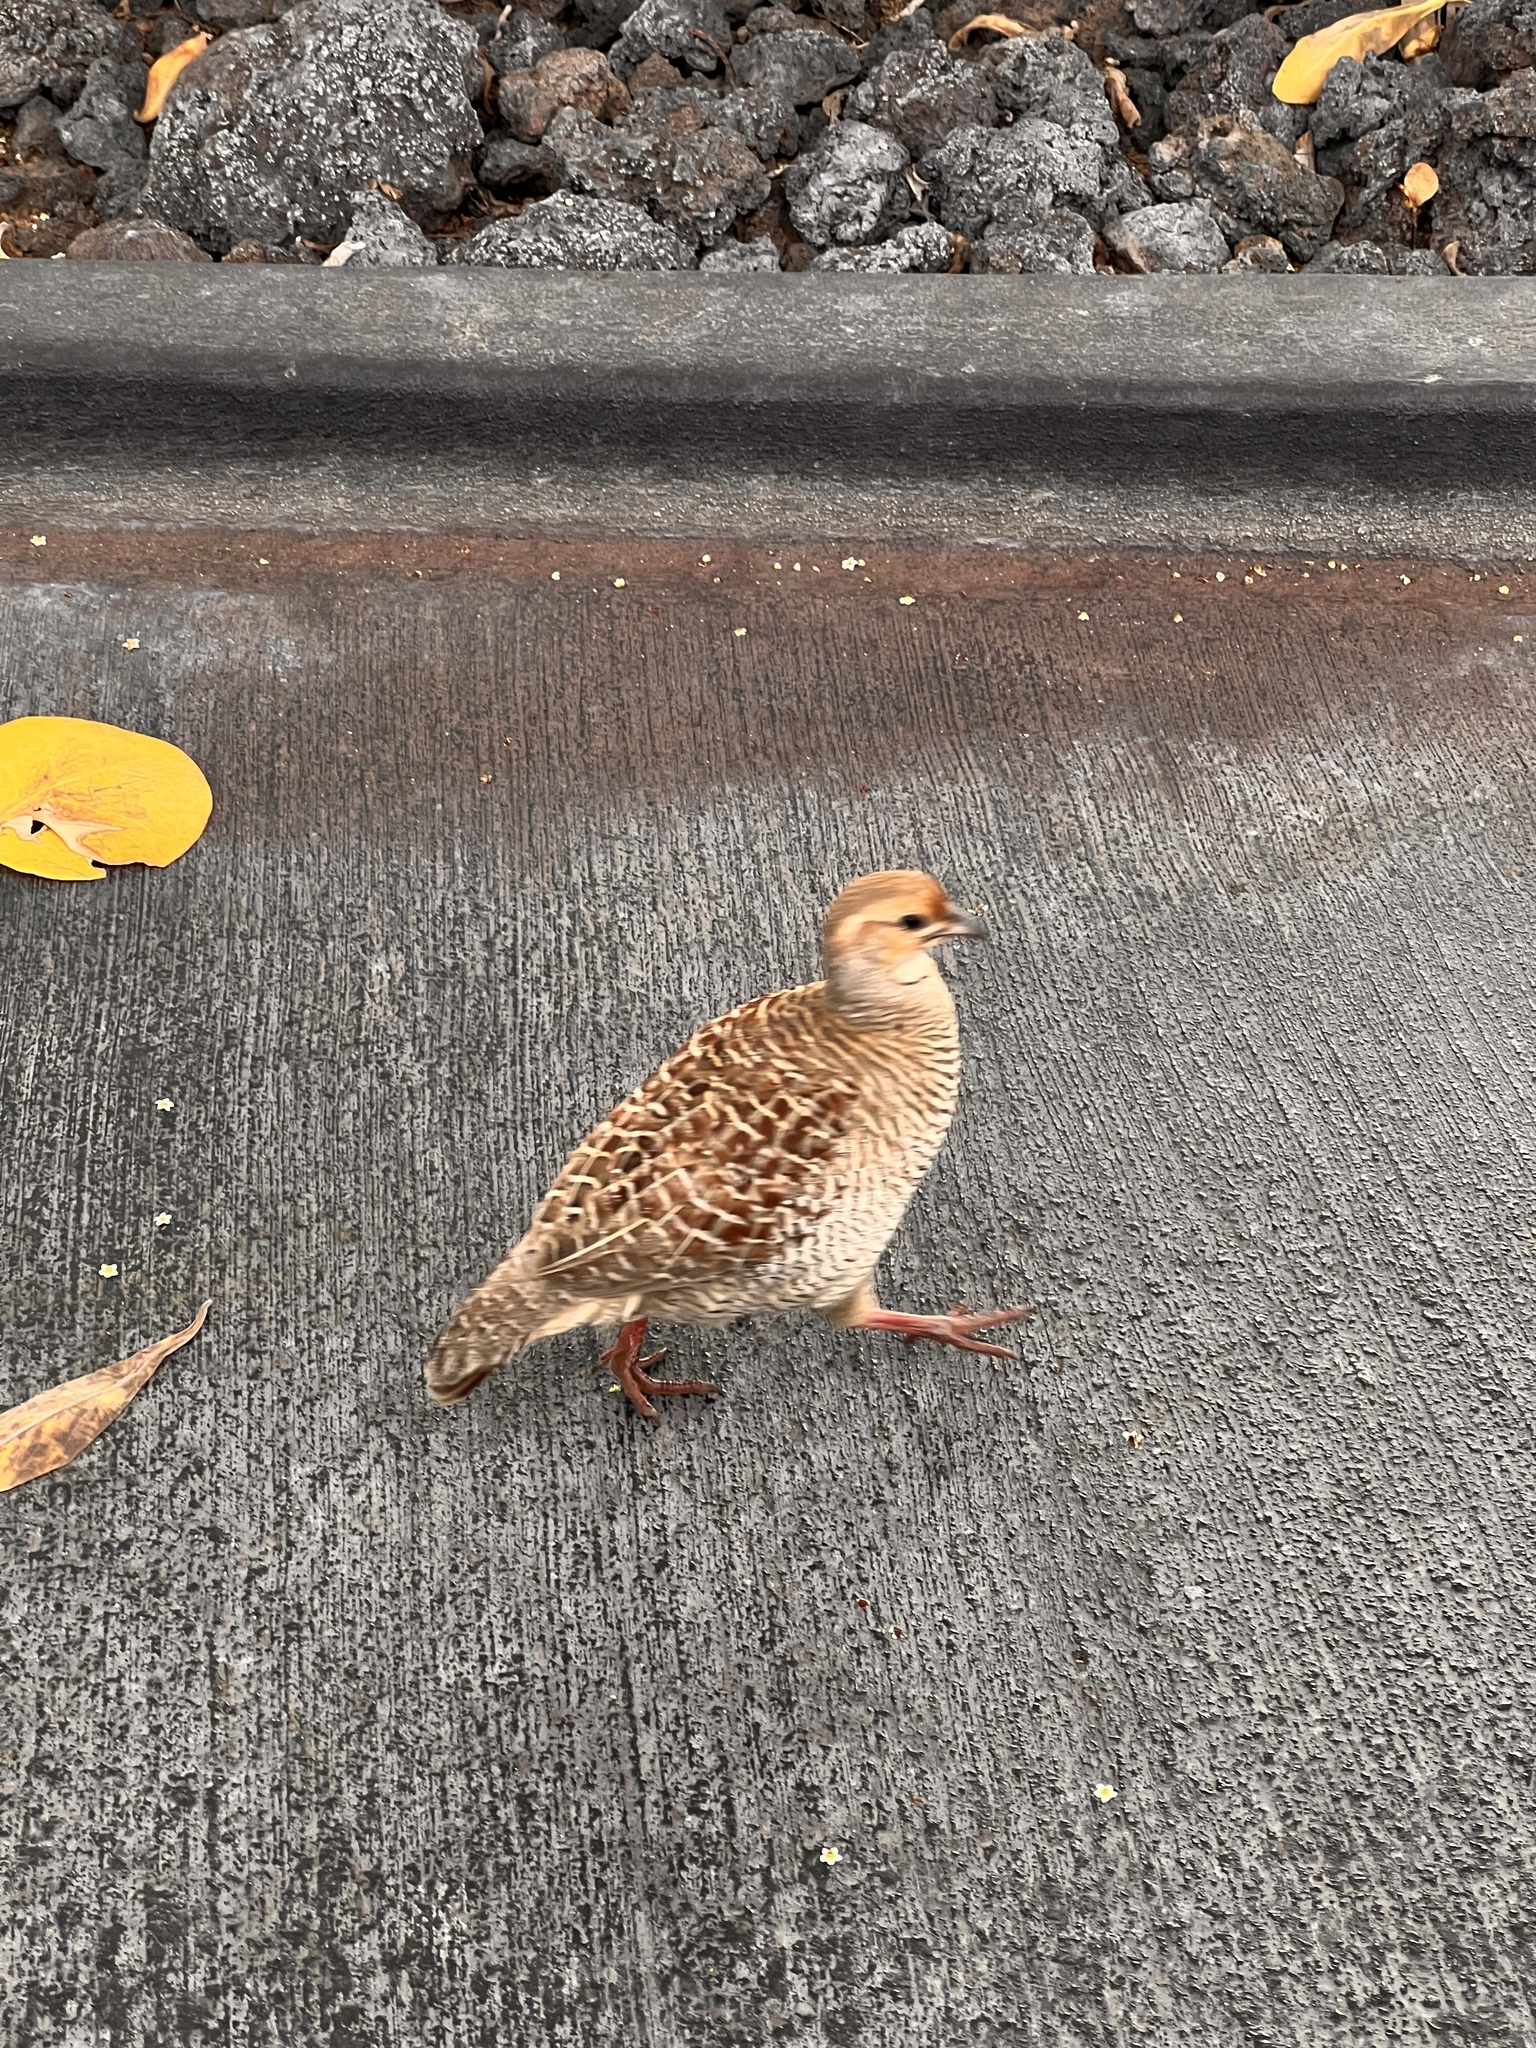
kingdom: Animalia
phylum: Chordata
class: Aves
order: Galliformes
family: Phasianidae
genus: Ortygornis
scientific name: Ortygornis pondicerianus
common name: Grey francolin
